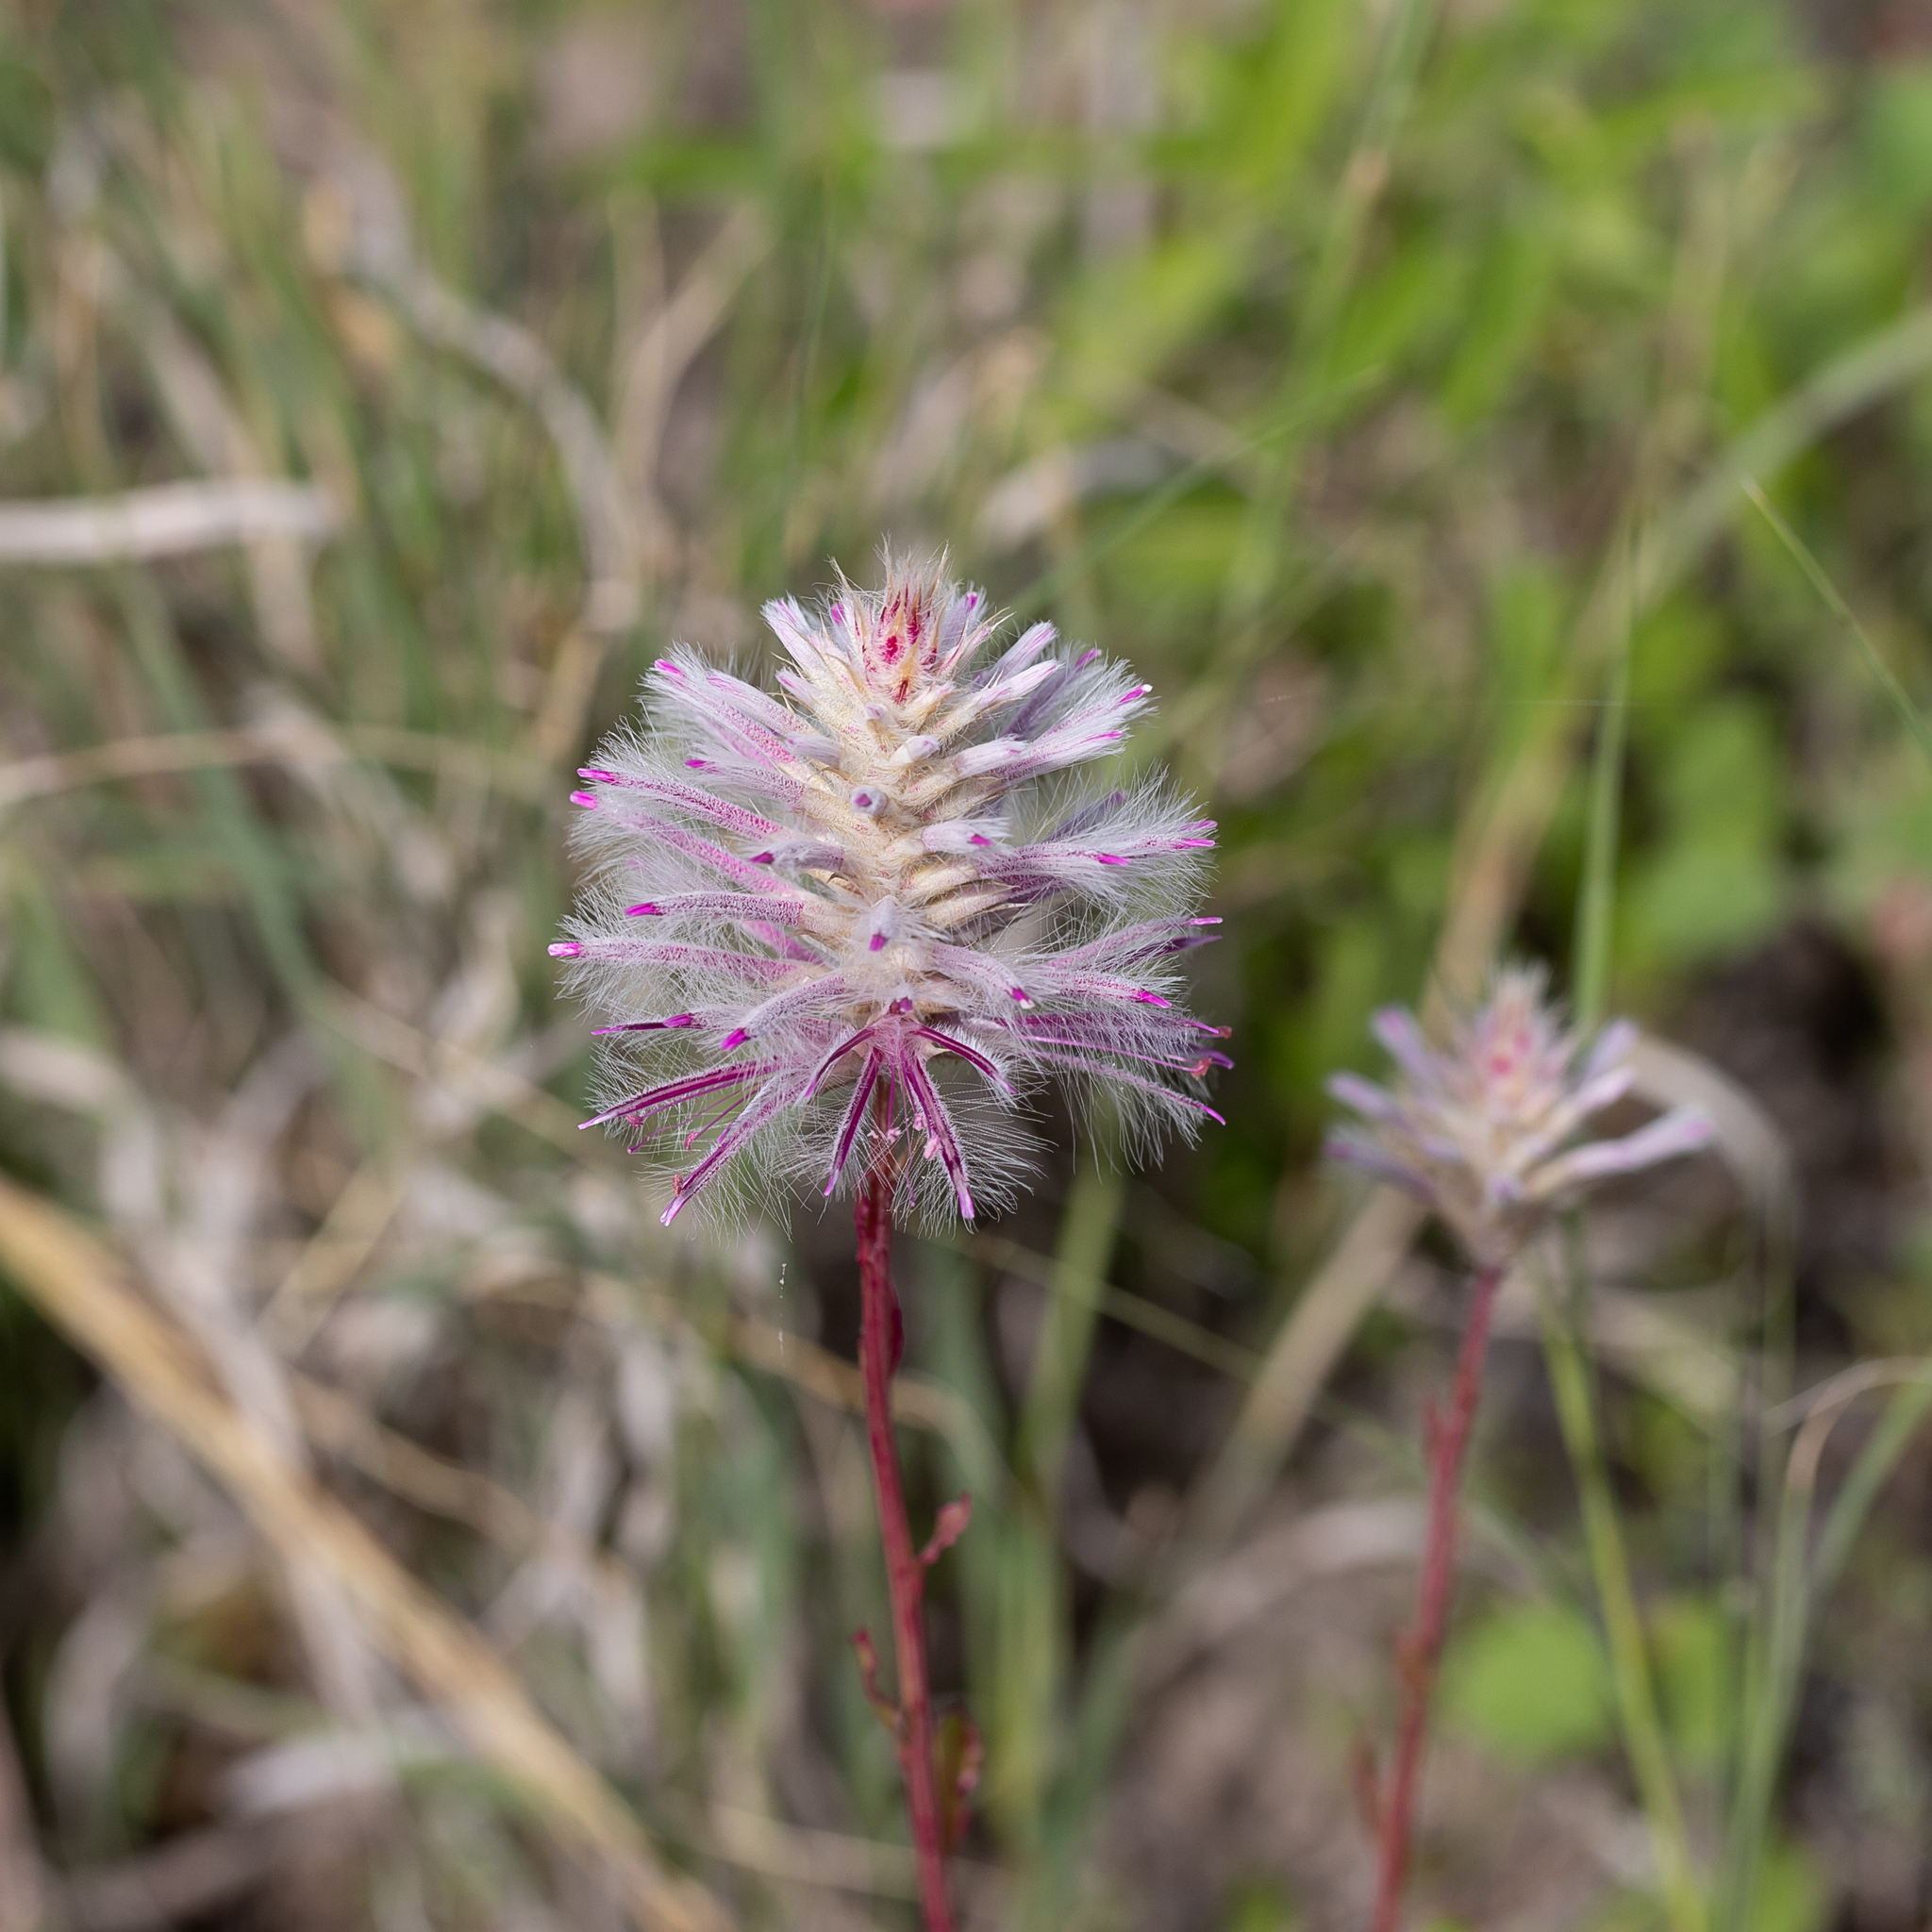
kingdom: Plantae
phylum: Tracheophyta
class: Magnoliopsida
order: Caryophyllales
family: Amaranthaceae
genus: Ptilotus
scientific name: Ptilotus exaltatus
